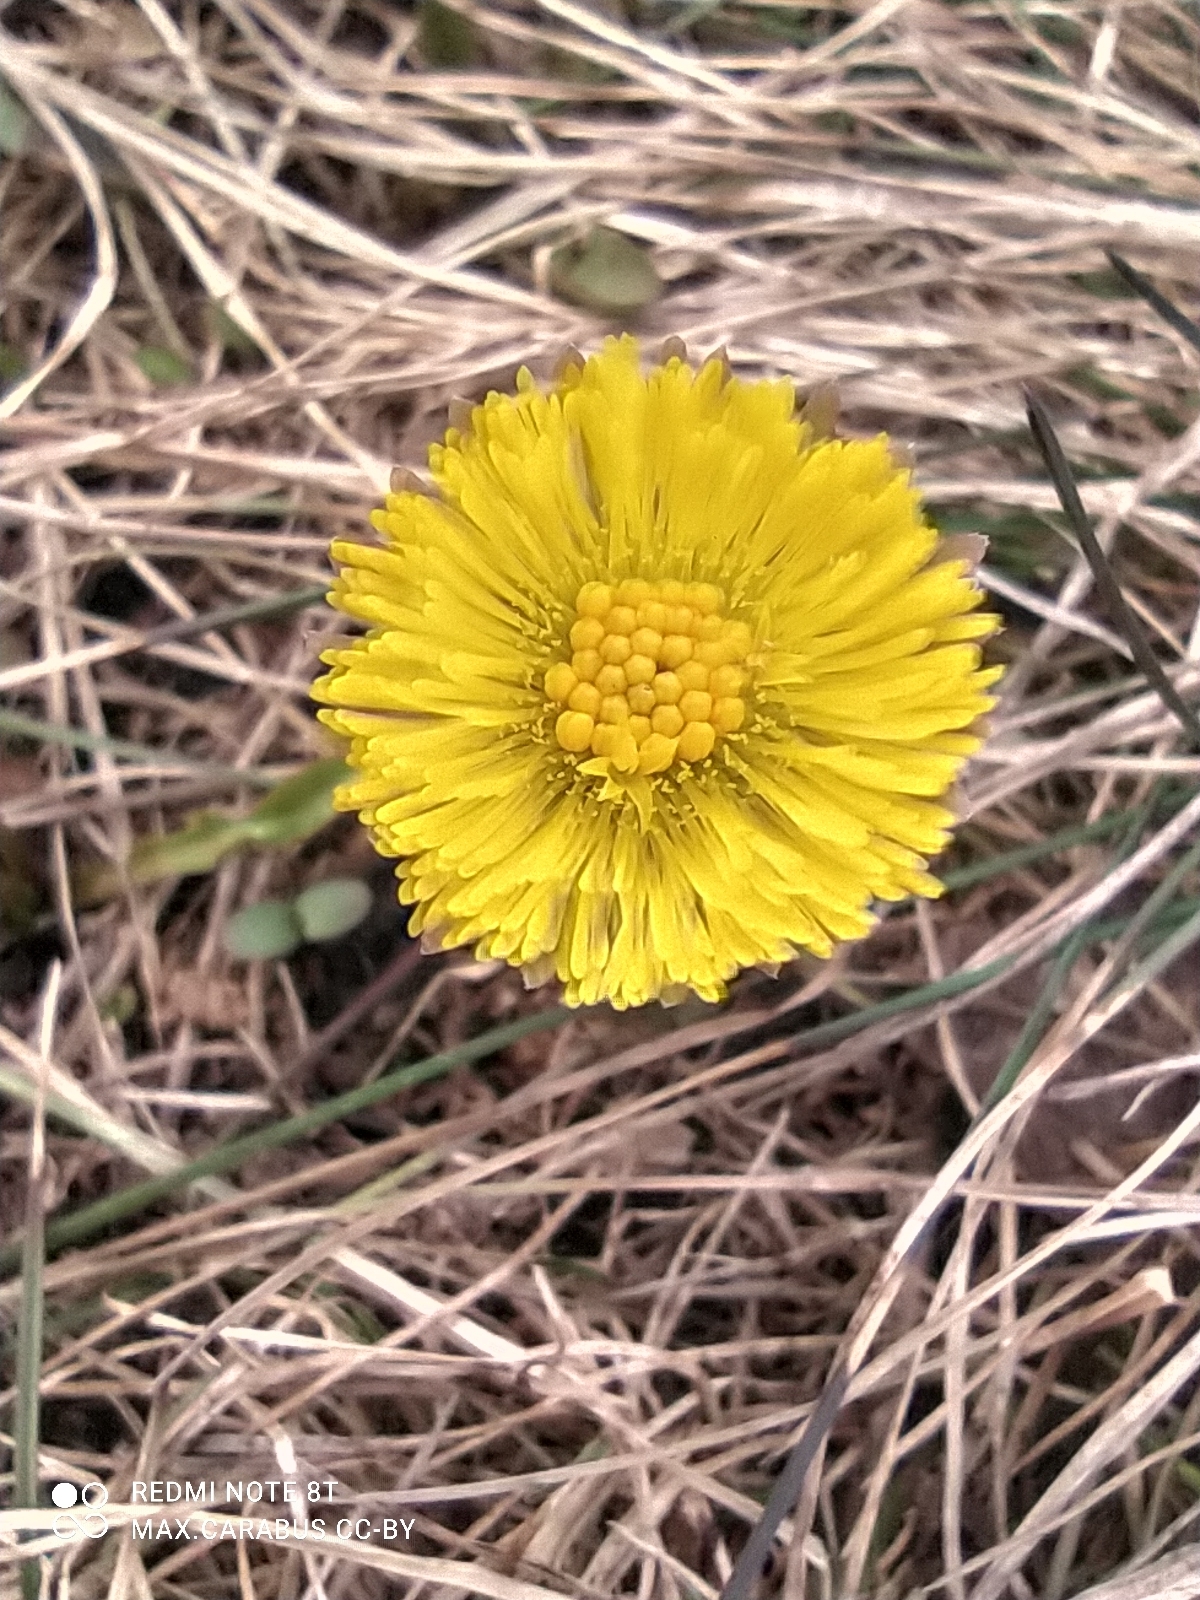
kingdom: Plantae
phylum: Tracheophyta
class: Magnoliopsida
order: Asterales
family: Asteraceae
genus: Tussilago
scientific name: Tussilago farfara
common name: Coltsfoot
